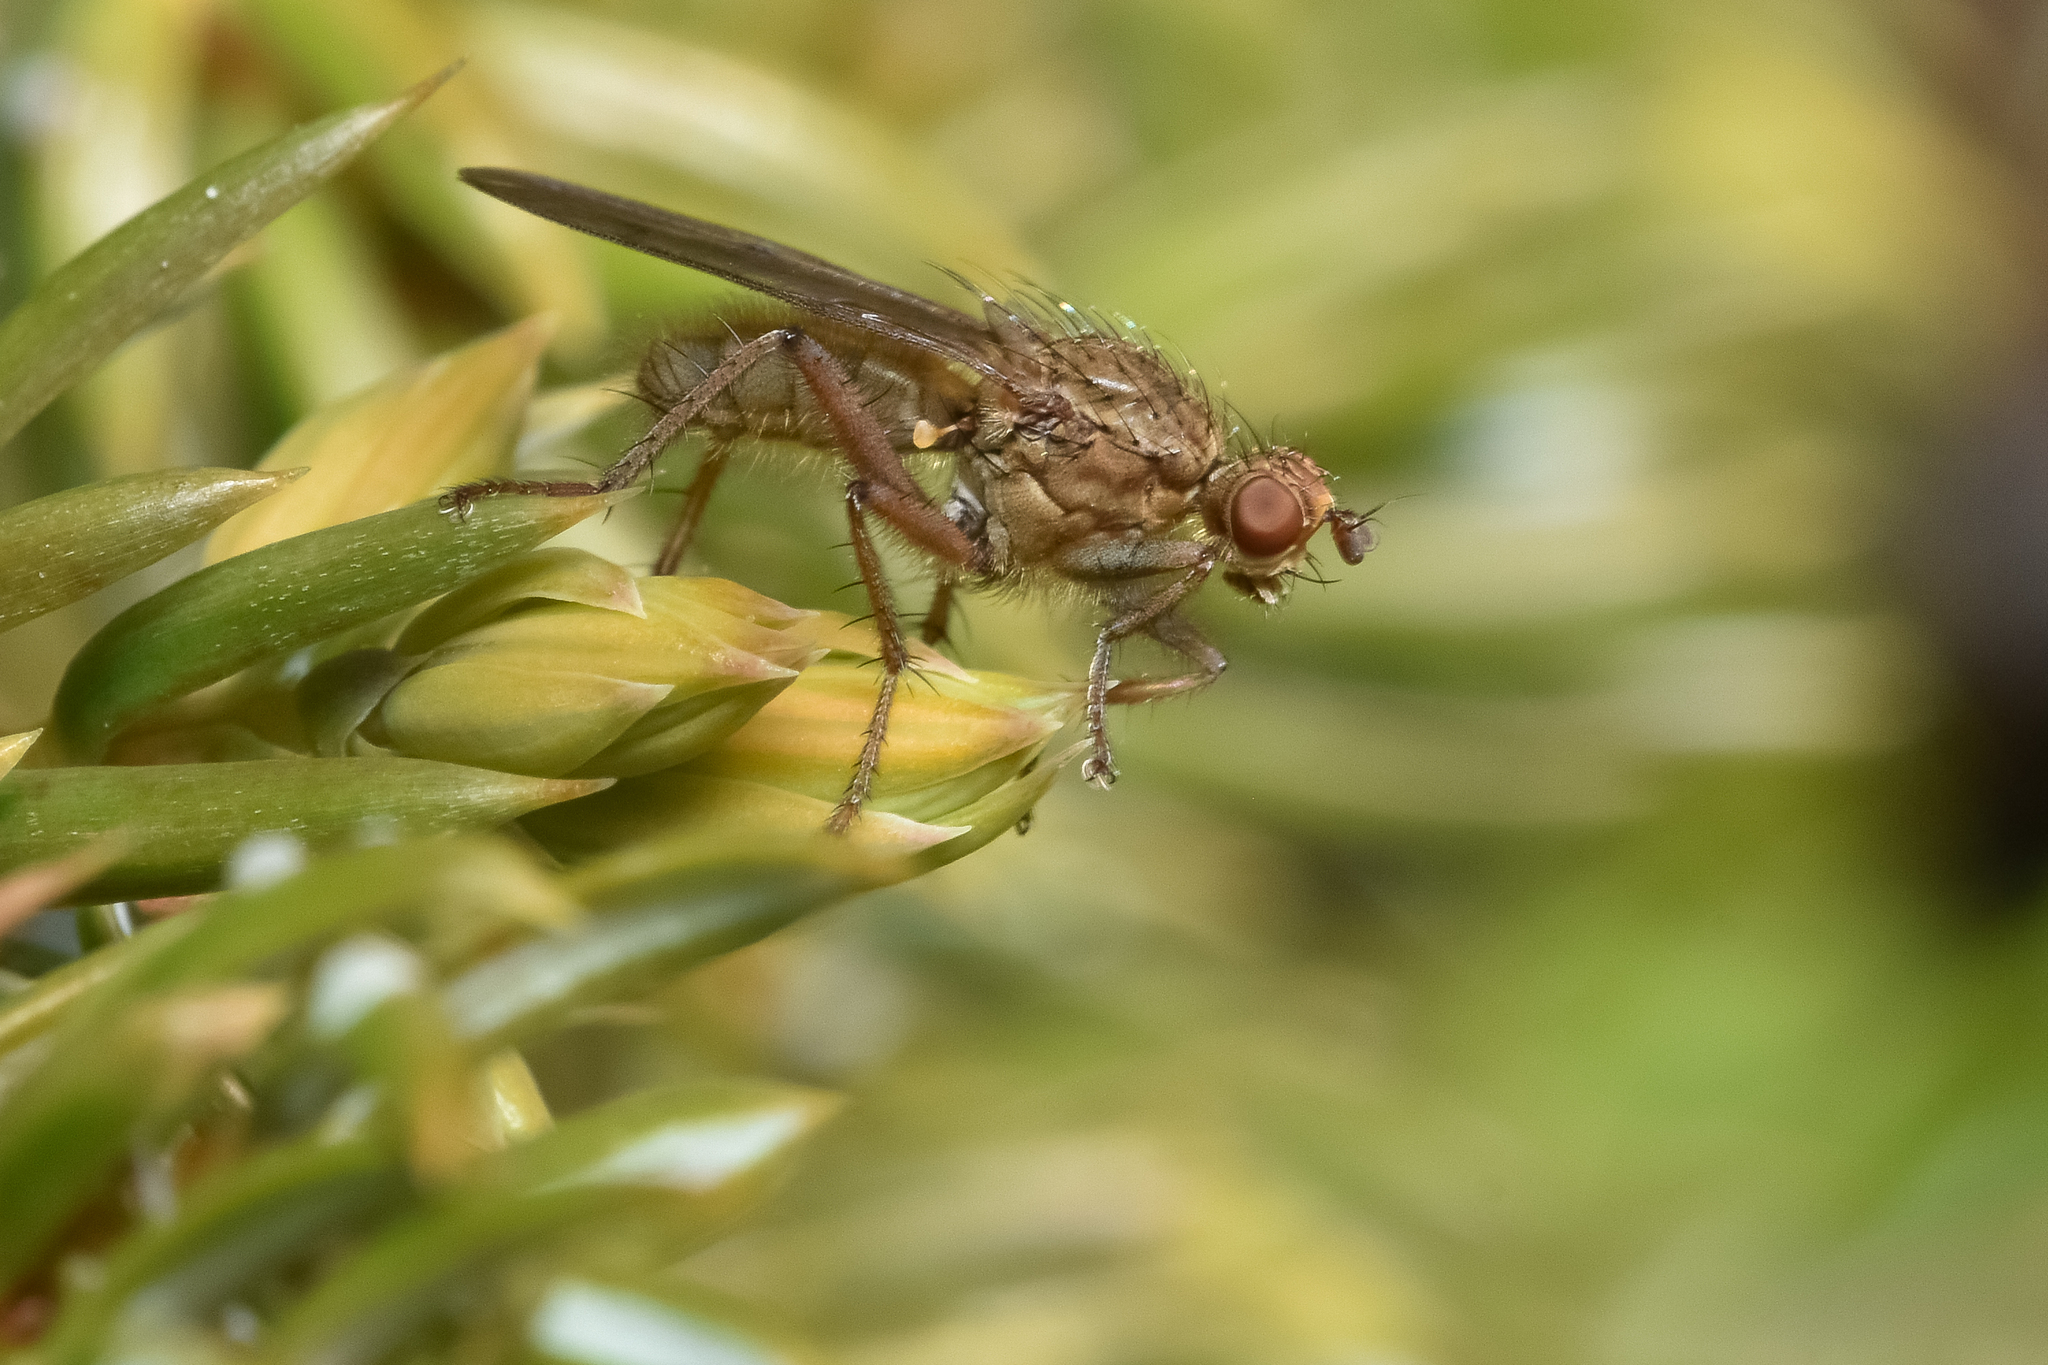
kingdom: Animalia
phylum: Arthropoda
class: Insecta
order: Diptera
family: Scathophagidae
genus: Scathophaga
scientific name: Scathophaga stercoraria
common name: Yellow dung fly
